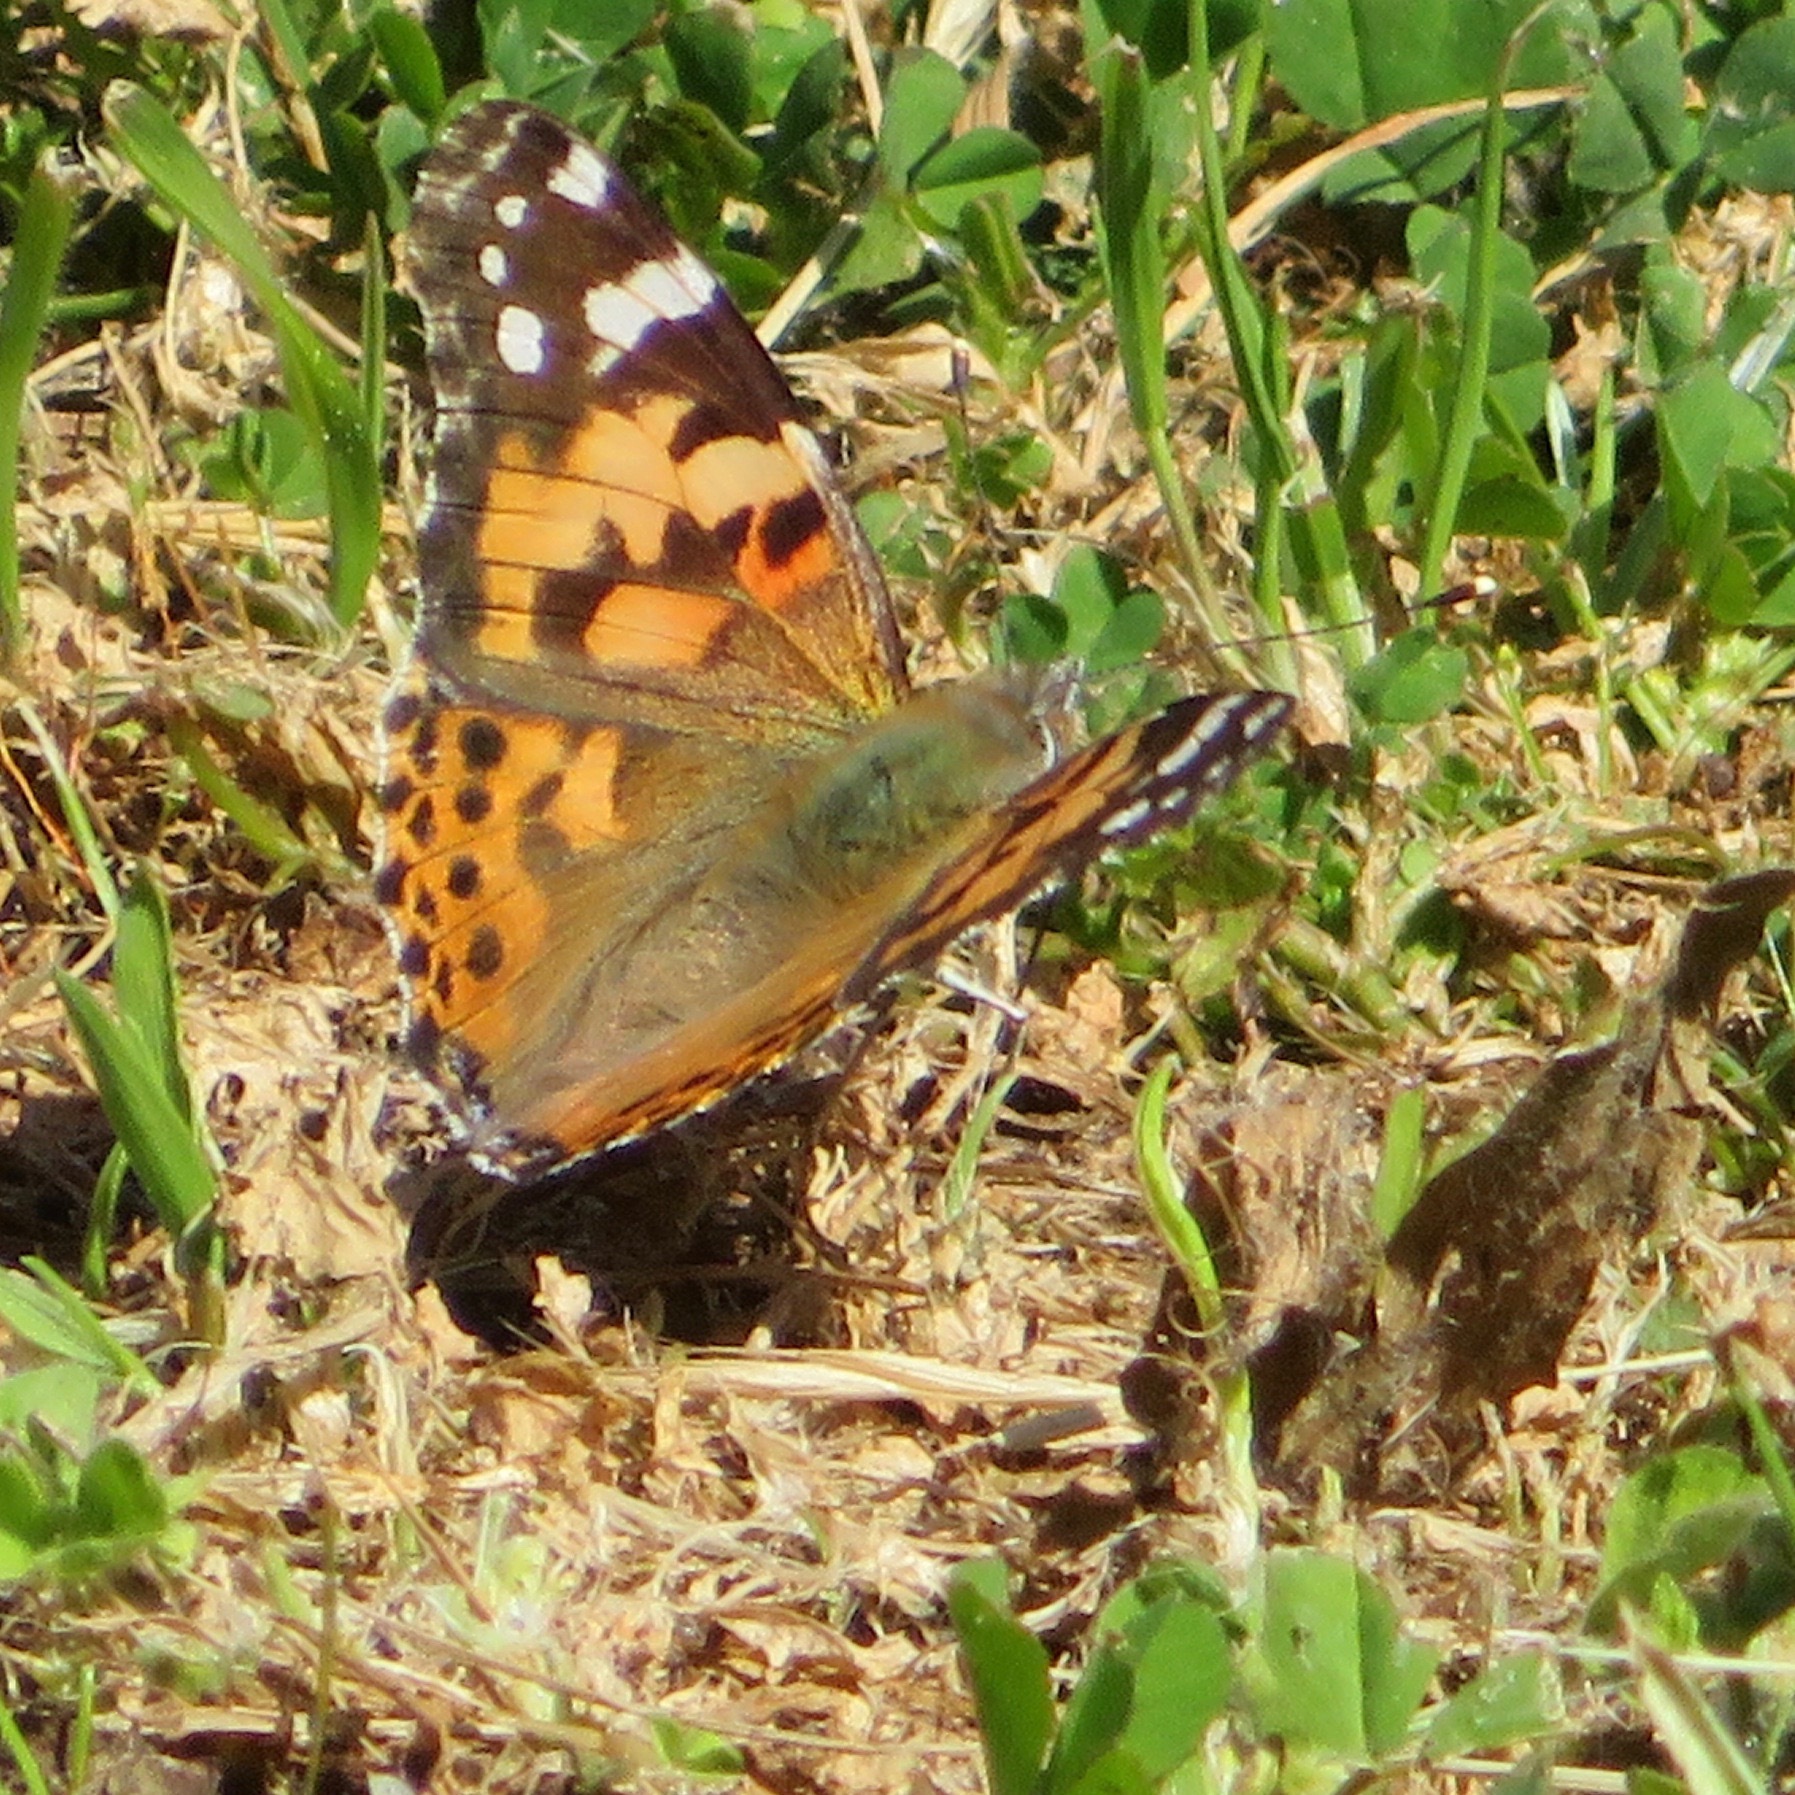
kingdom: Animalia
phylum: Arthropoda
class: Insecta
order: Lepidoptera
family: Nymphalidae
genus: Vanessa
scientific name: Vanessa cardui
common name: Painted lady
